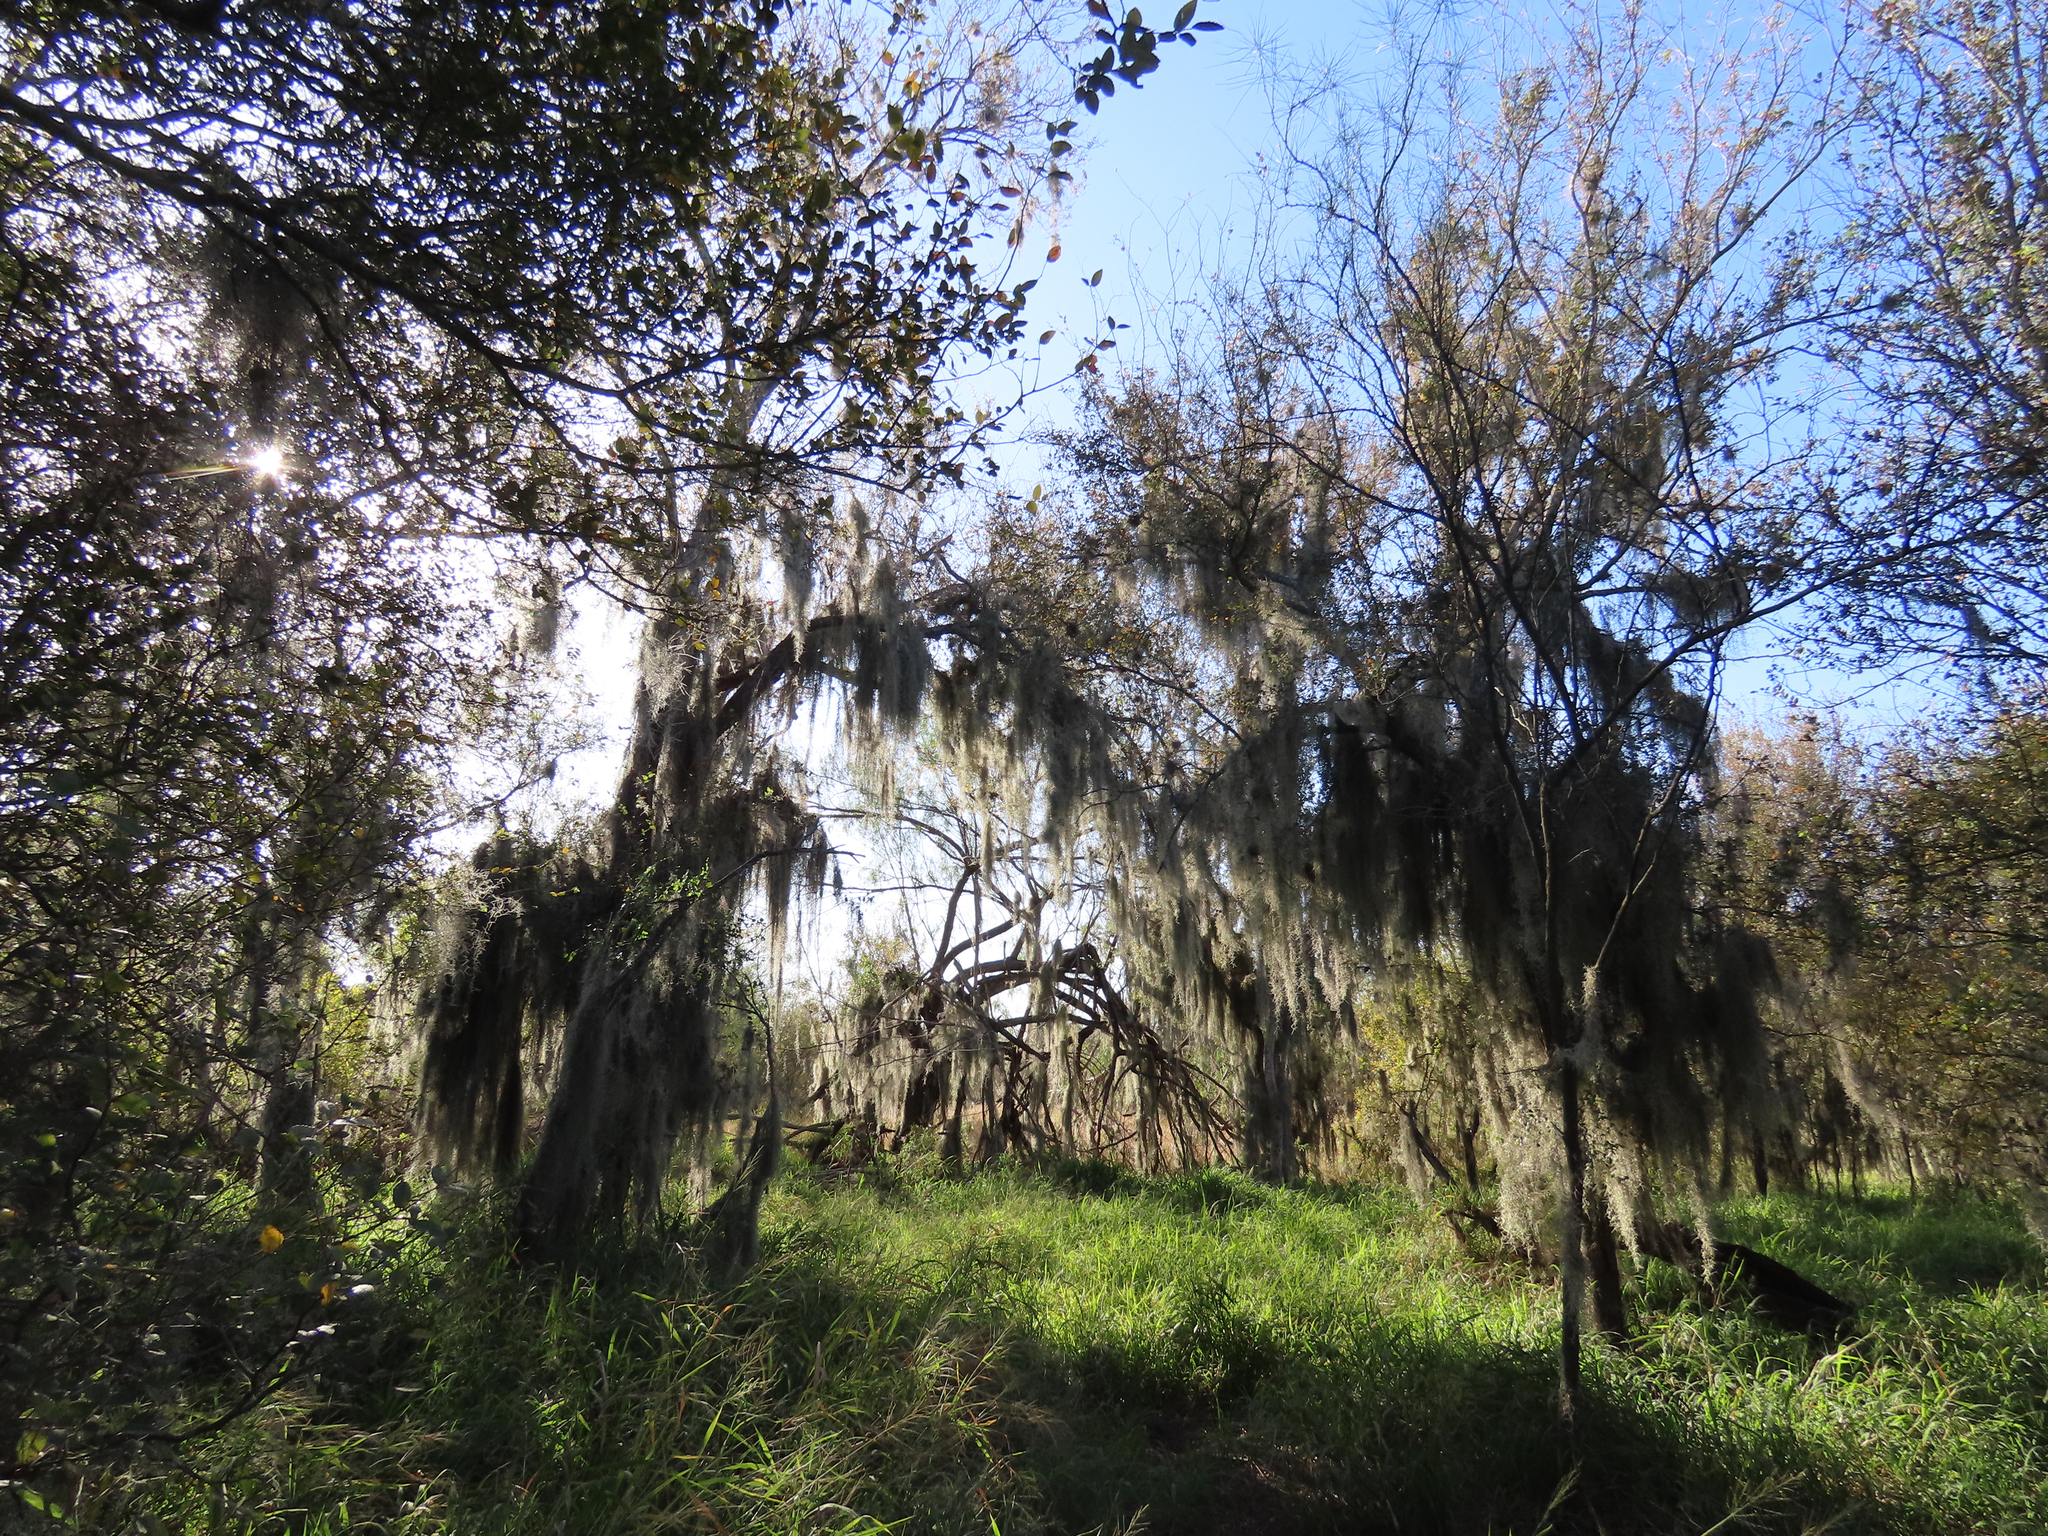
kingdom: Plantae
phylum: Tracheophyta
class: Liliopsida
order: Poales
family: Bromeliaceae
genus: Tillandsia
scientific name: Tillandsia usneoides
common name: Spanish moss
